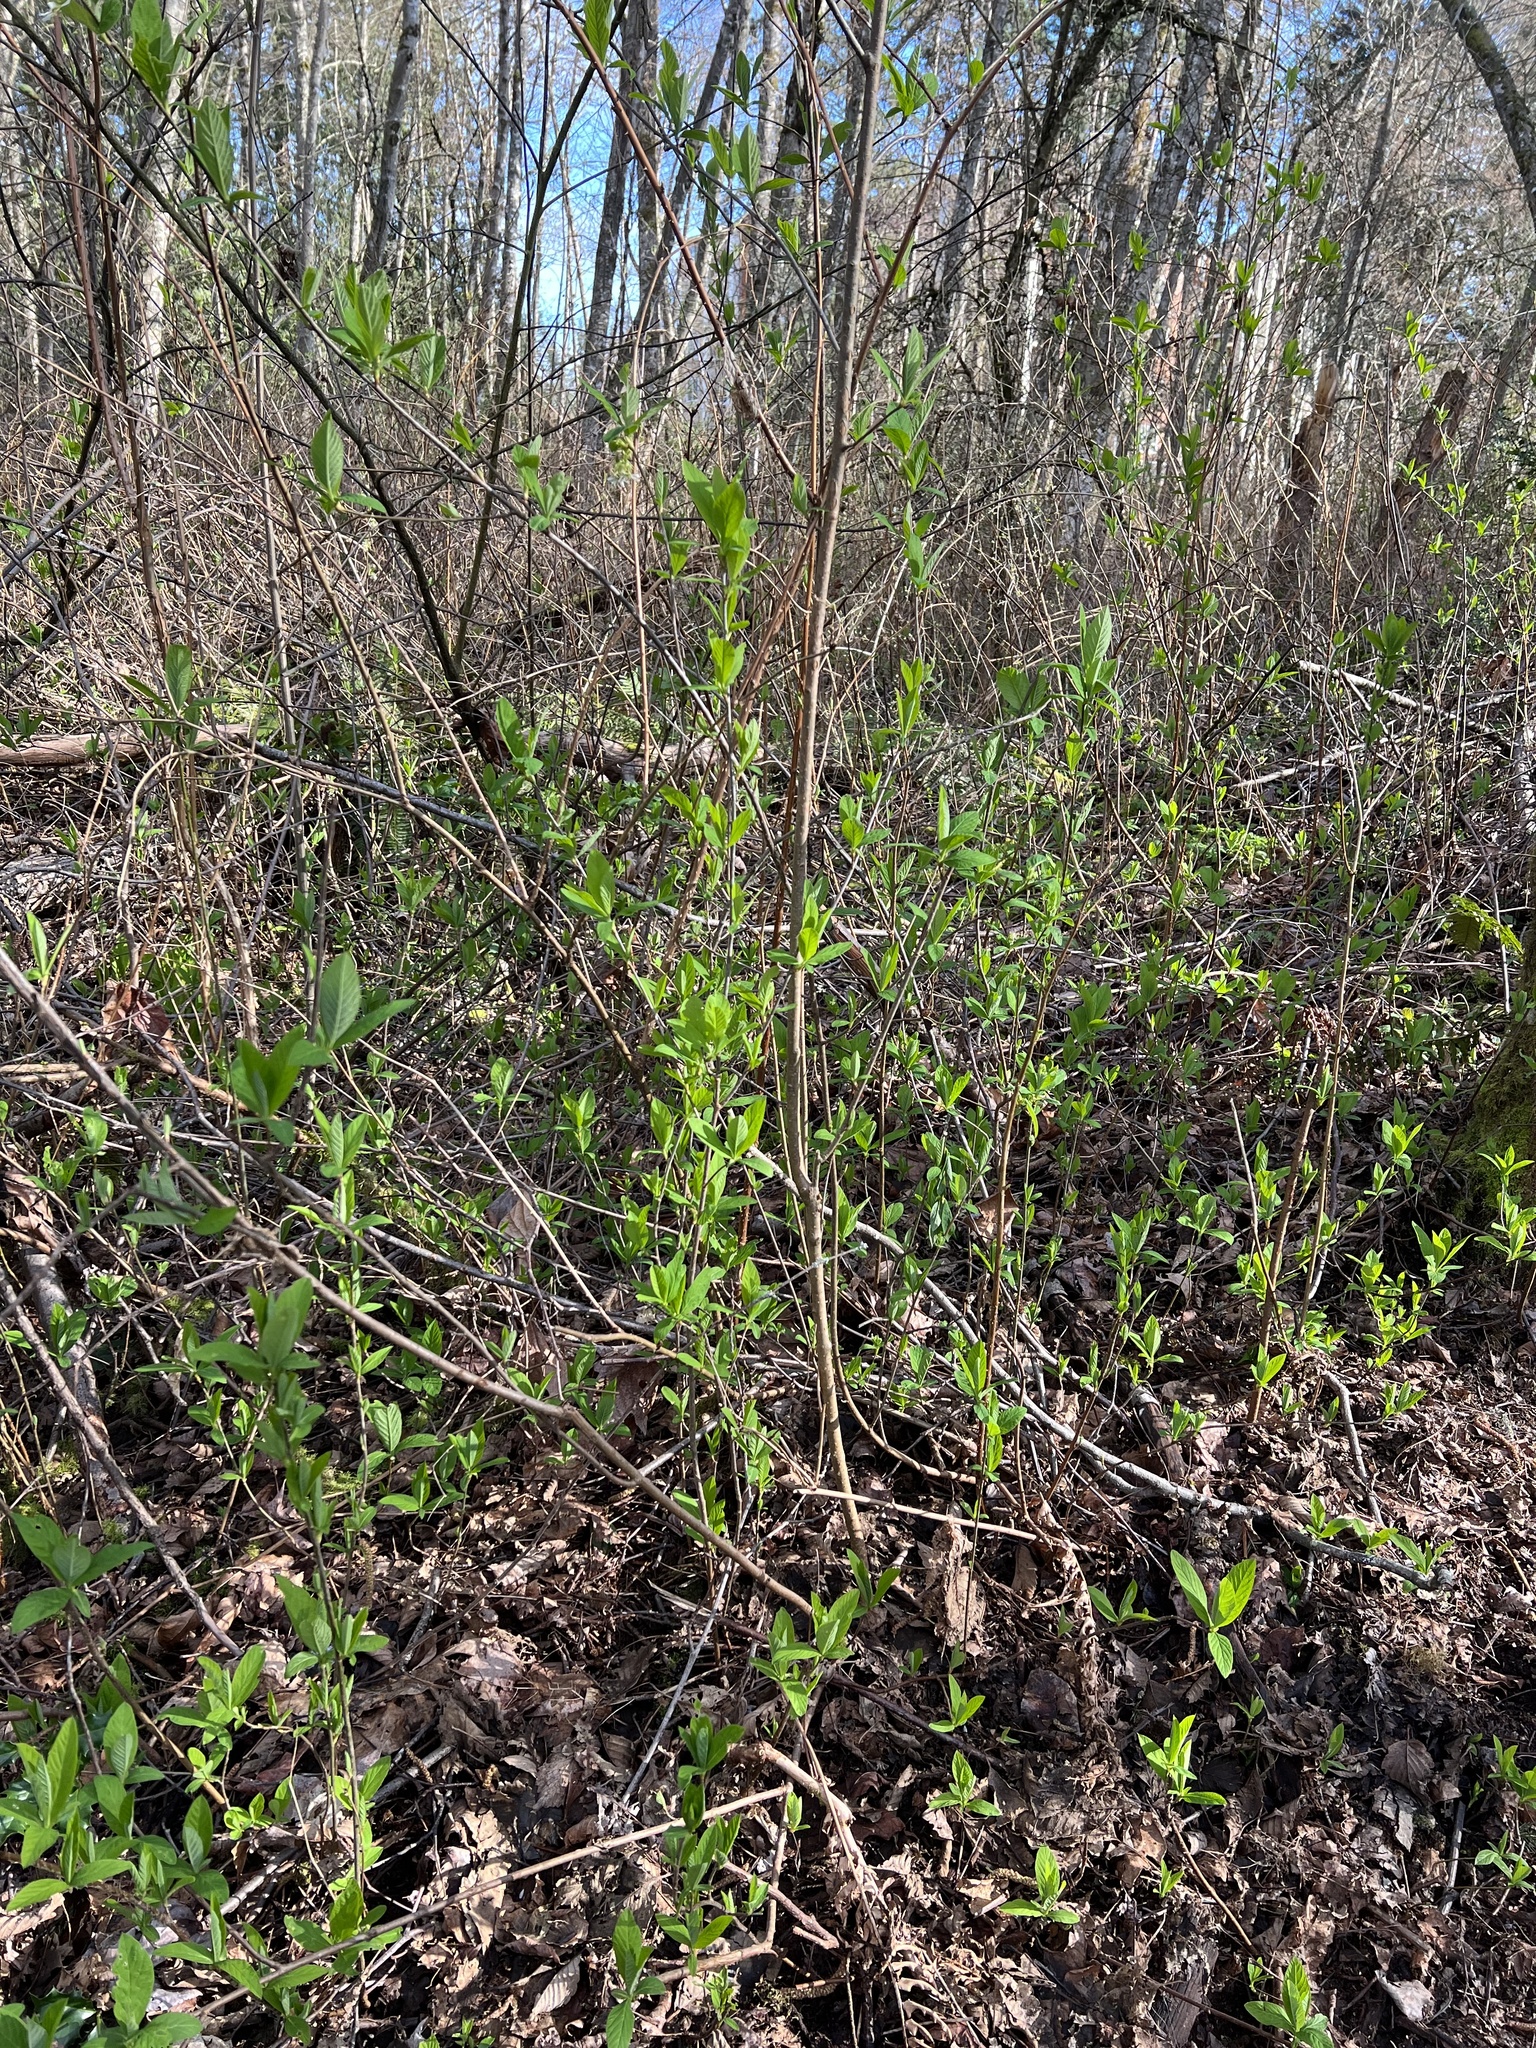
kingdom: Plantae
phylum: Tracheophyta
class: Magnoliopsida
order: Rosales
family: Rosaceae
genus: Oemleria
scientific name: Oemleria cerasiformis
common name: Osoberry
